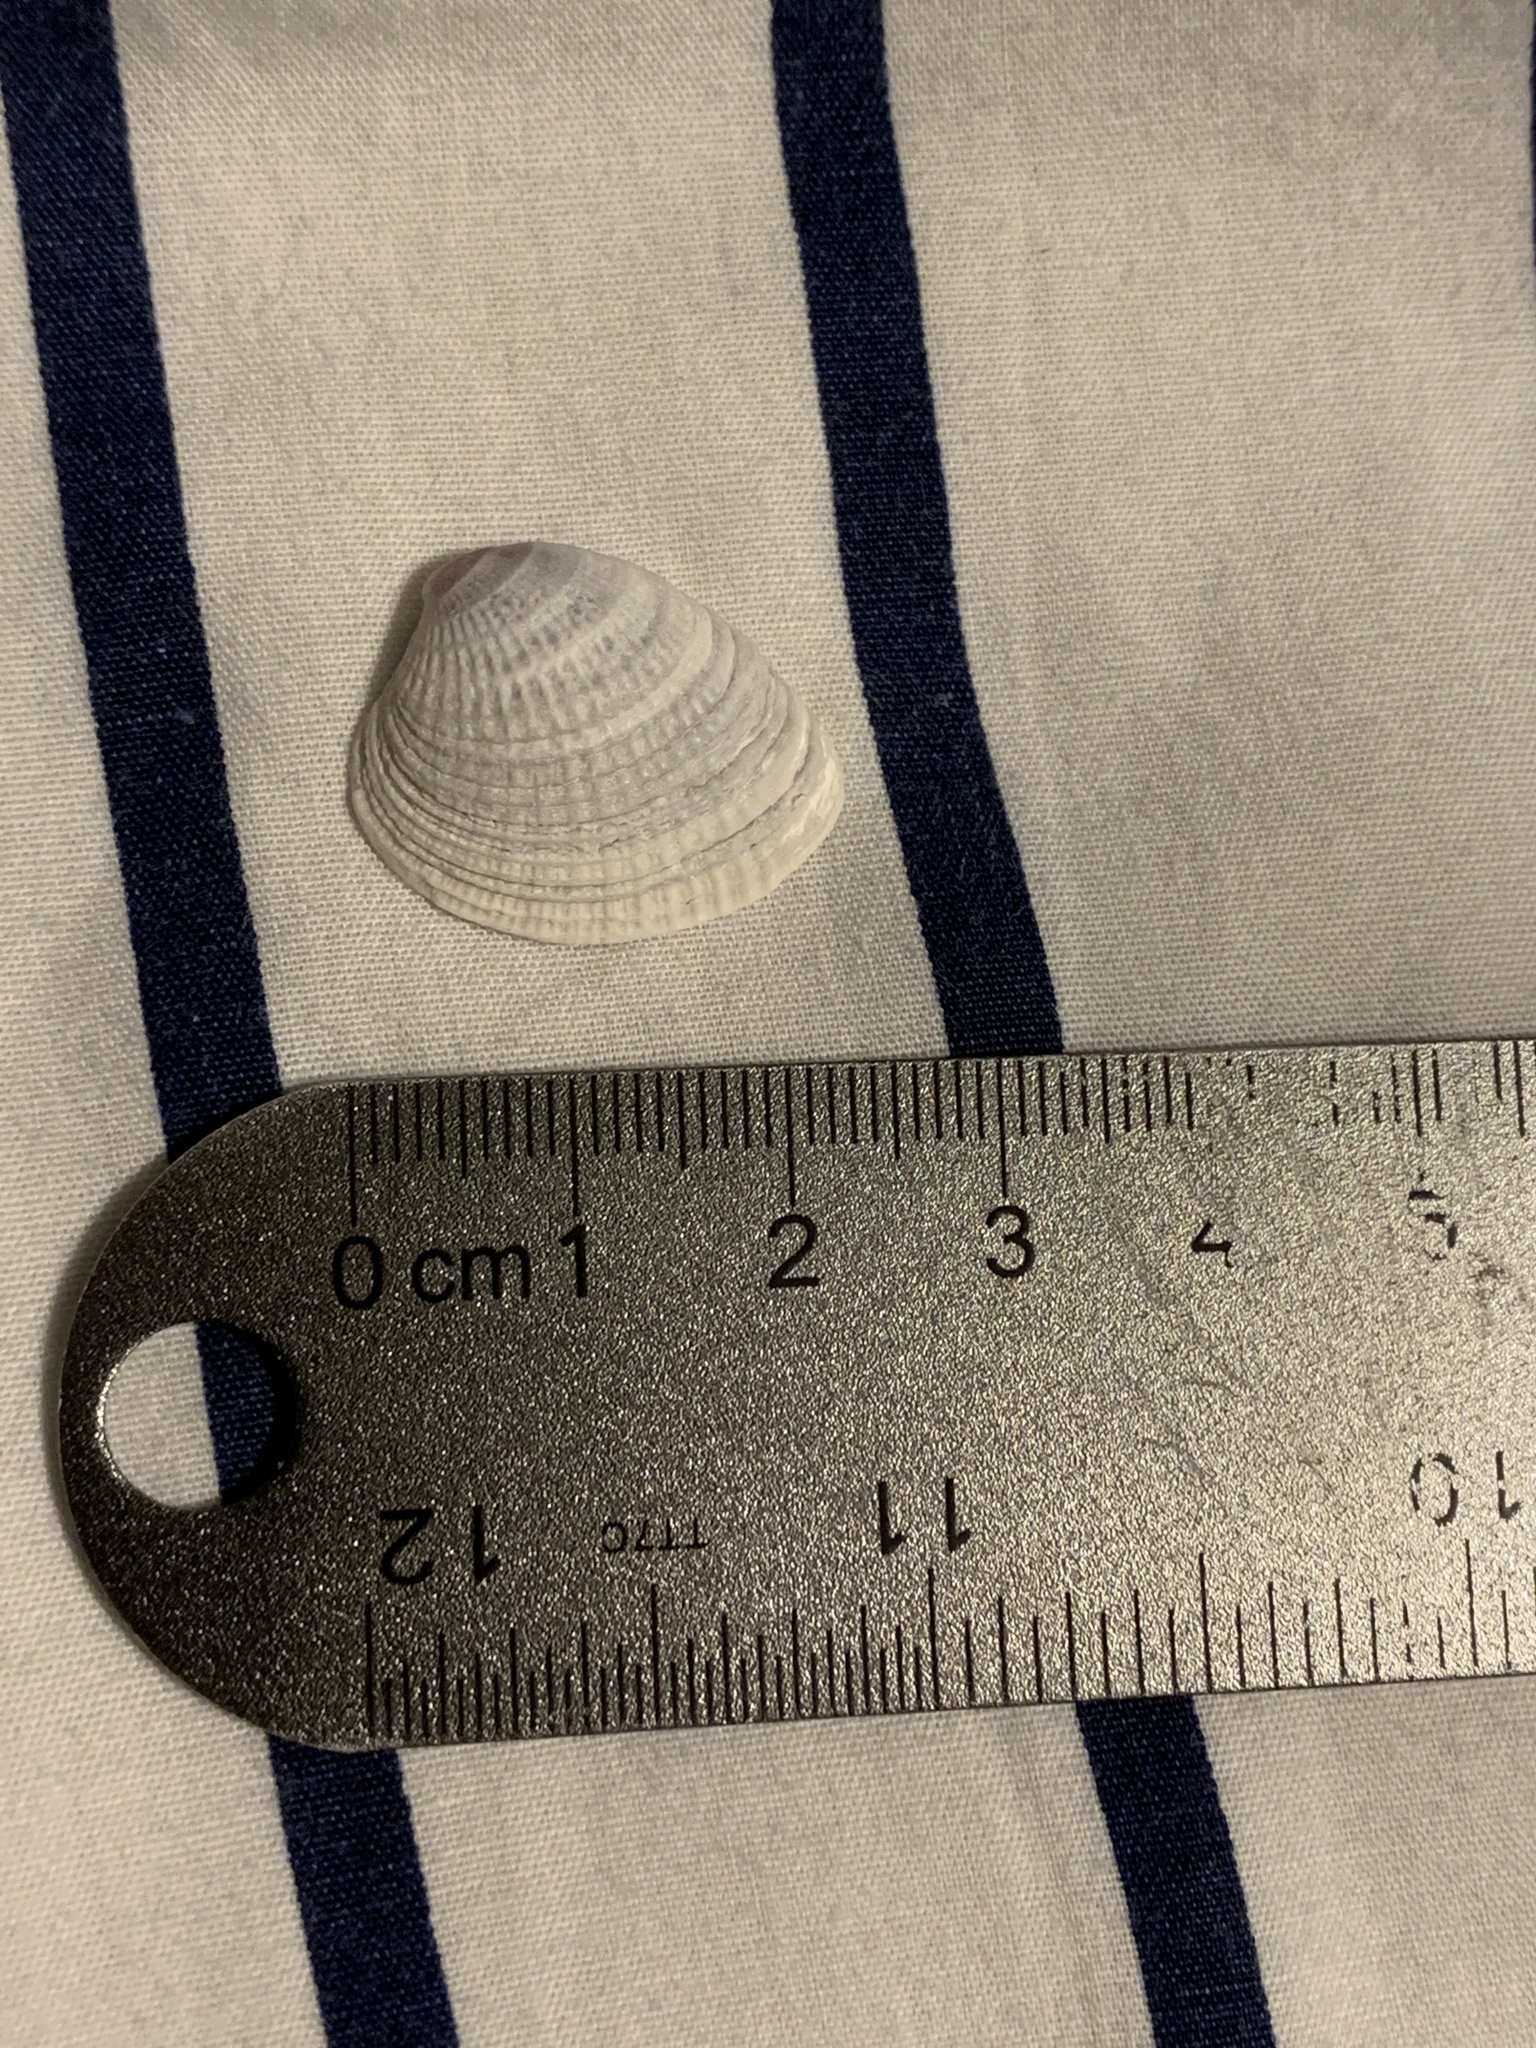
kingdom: Animalia
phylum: Mollusca
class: Bivalvia
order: Venerida
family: Veneridae
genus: Chione
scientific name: Chione elevata
